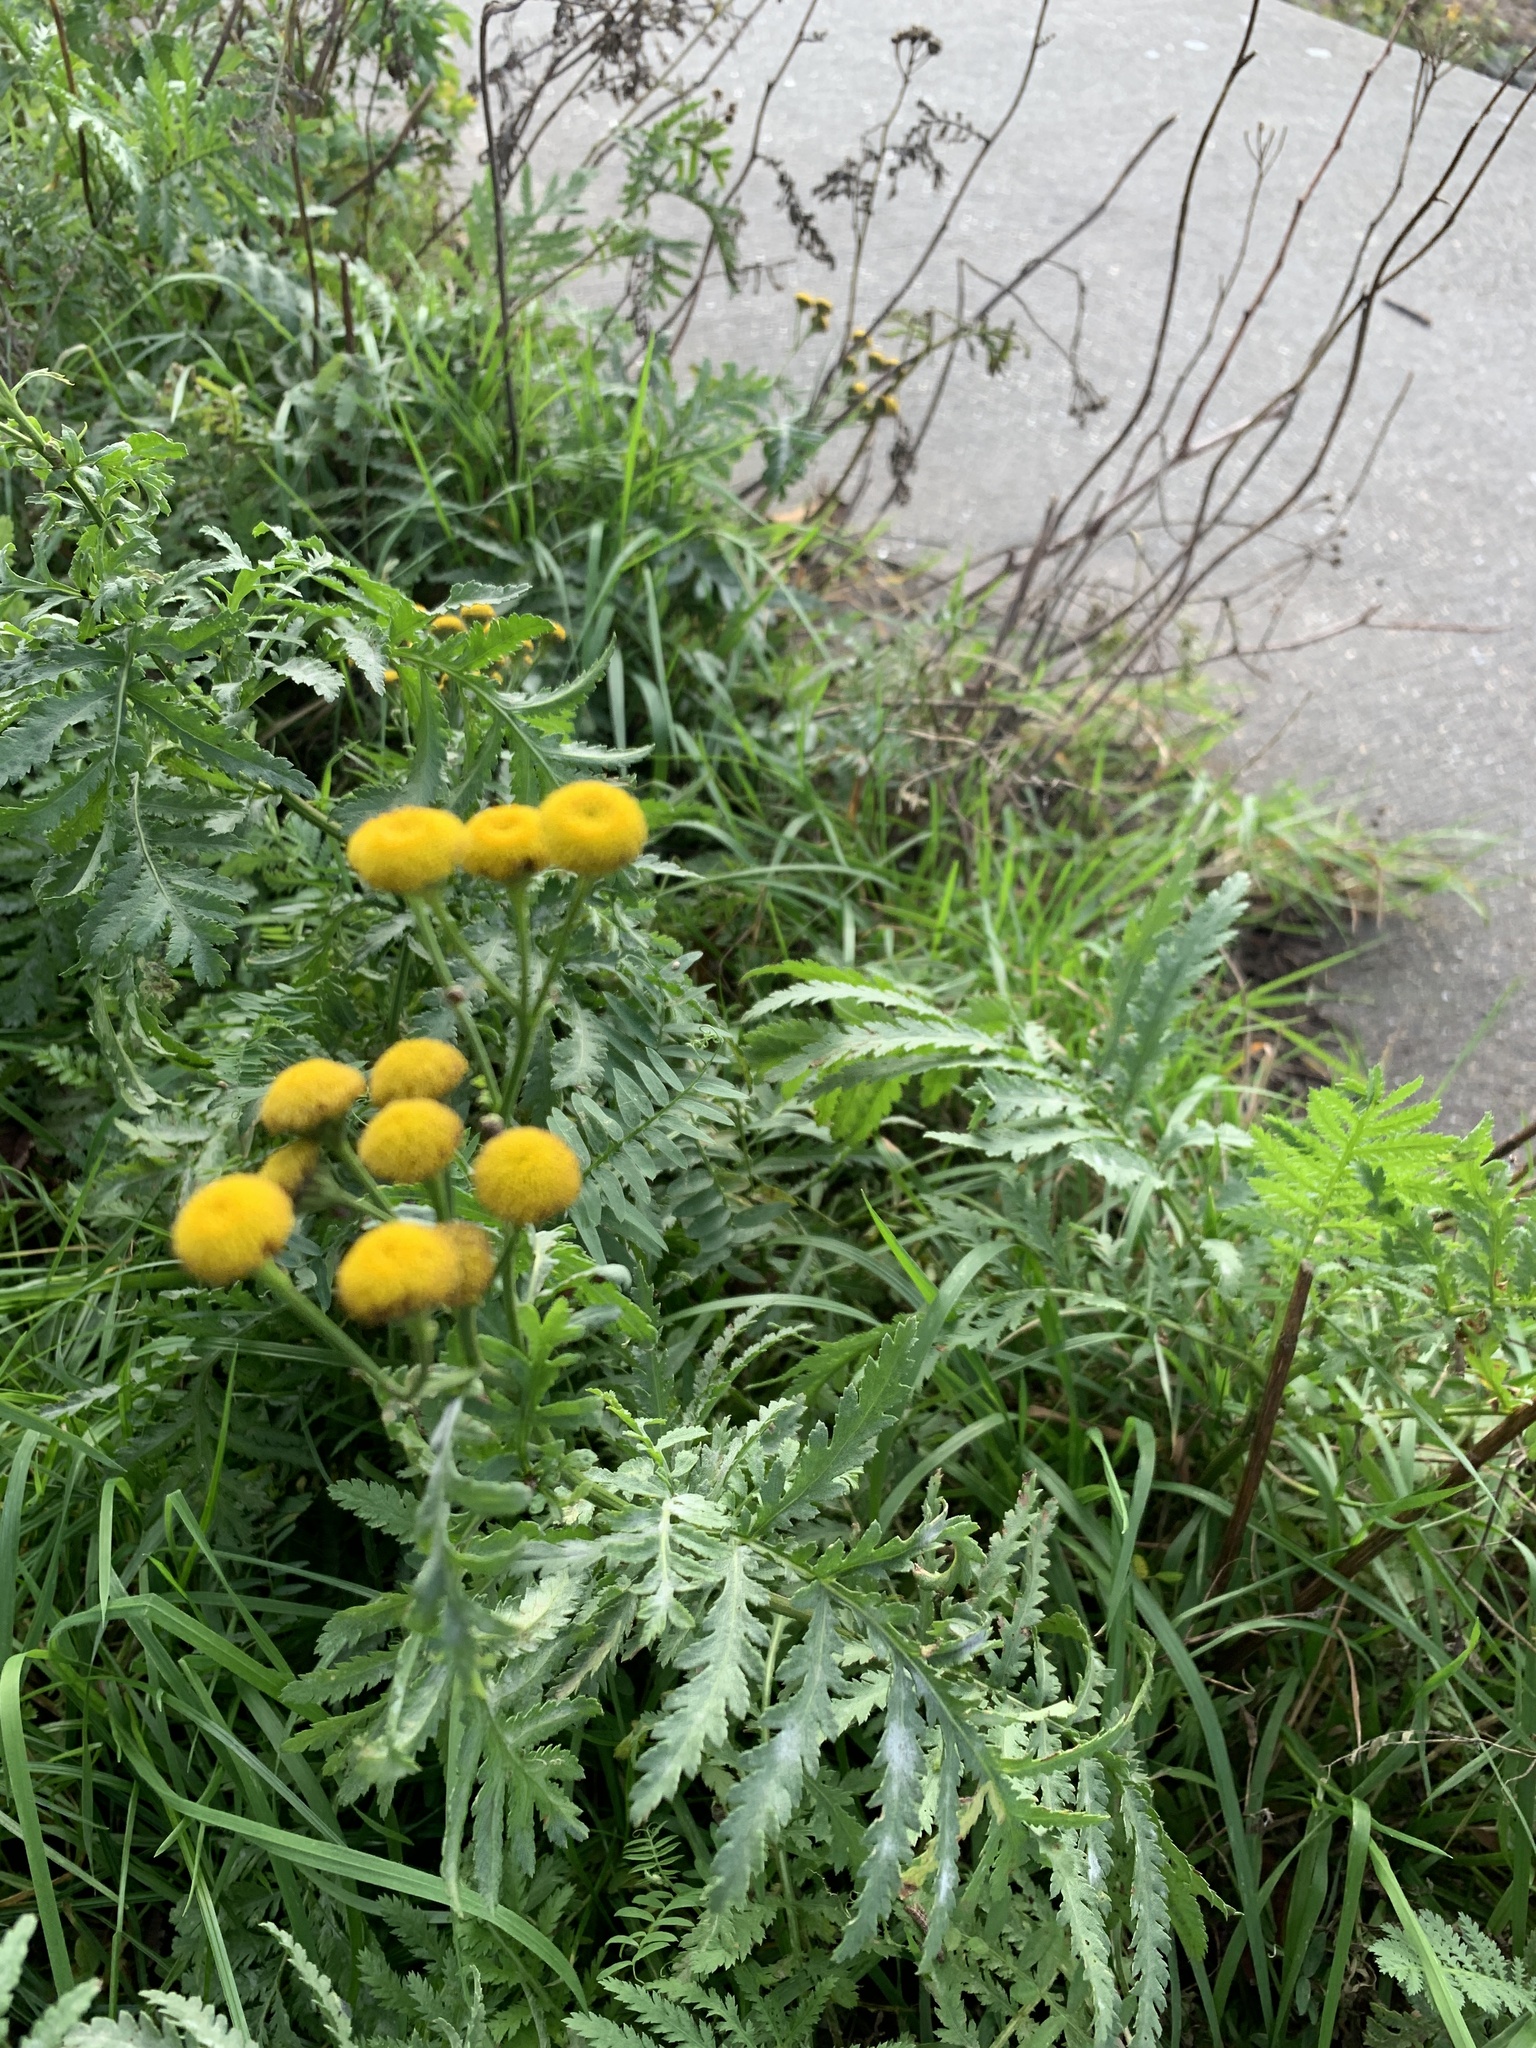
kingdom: Plantae
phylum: Tracheophyta
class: Magnoliopsida
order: Asterales
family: Asteraceae
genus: Tanacetum
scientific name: Tanacetum vulgare
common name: Common tansy
